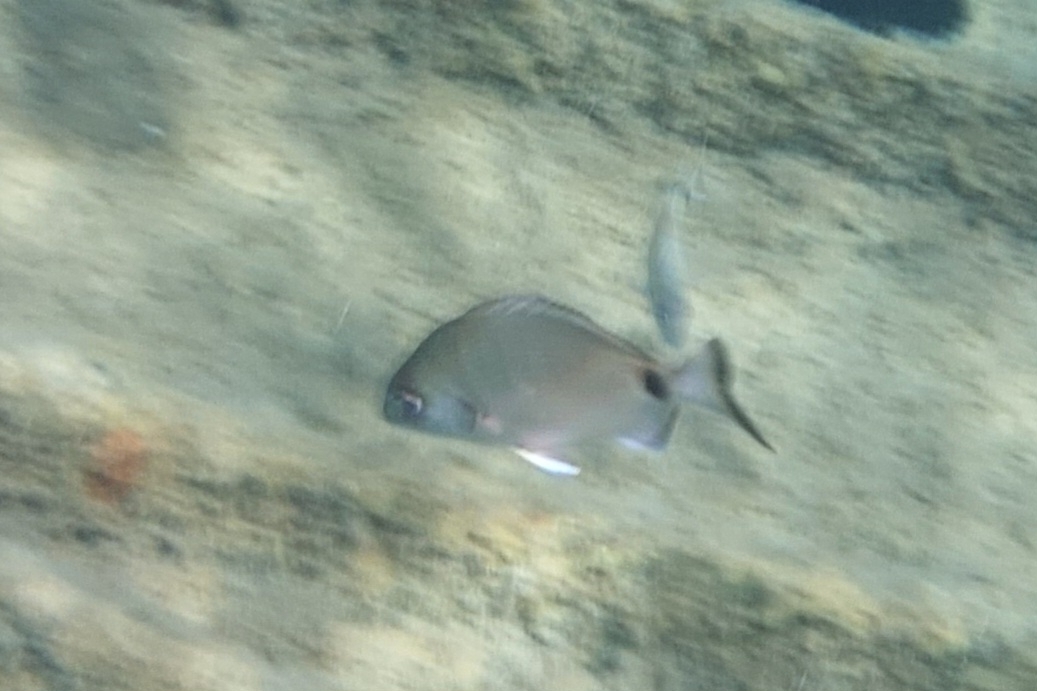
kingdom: Animalia
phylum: Chordata
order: Perciformes
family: Sparidae
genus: Diplodus
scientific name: Diplodus sargus
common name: White seabream
